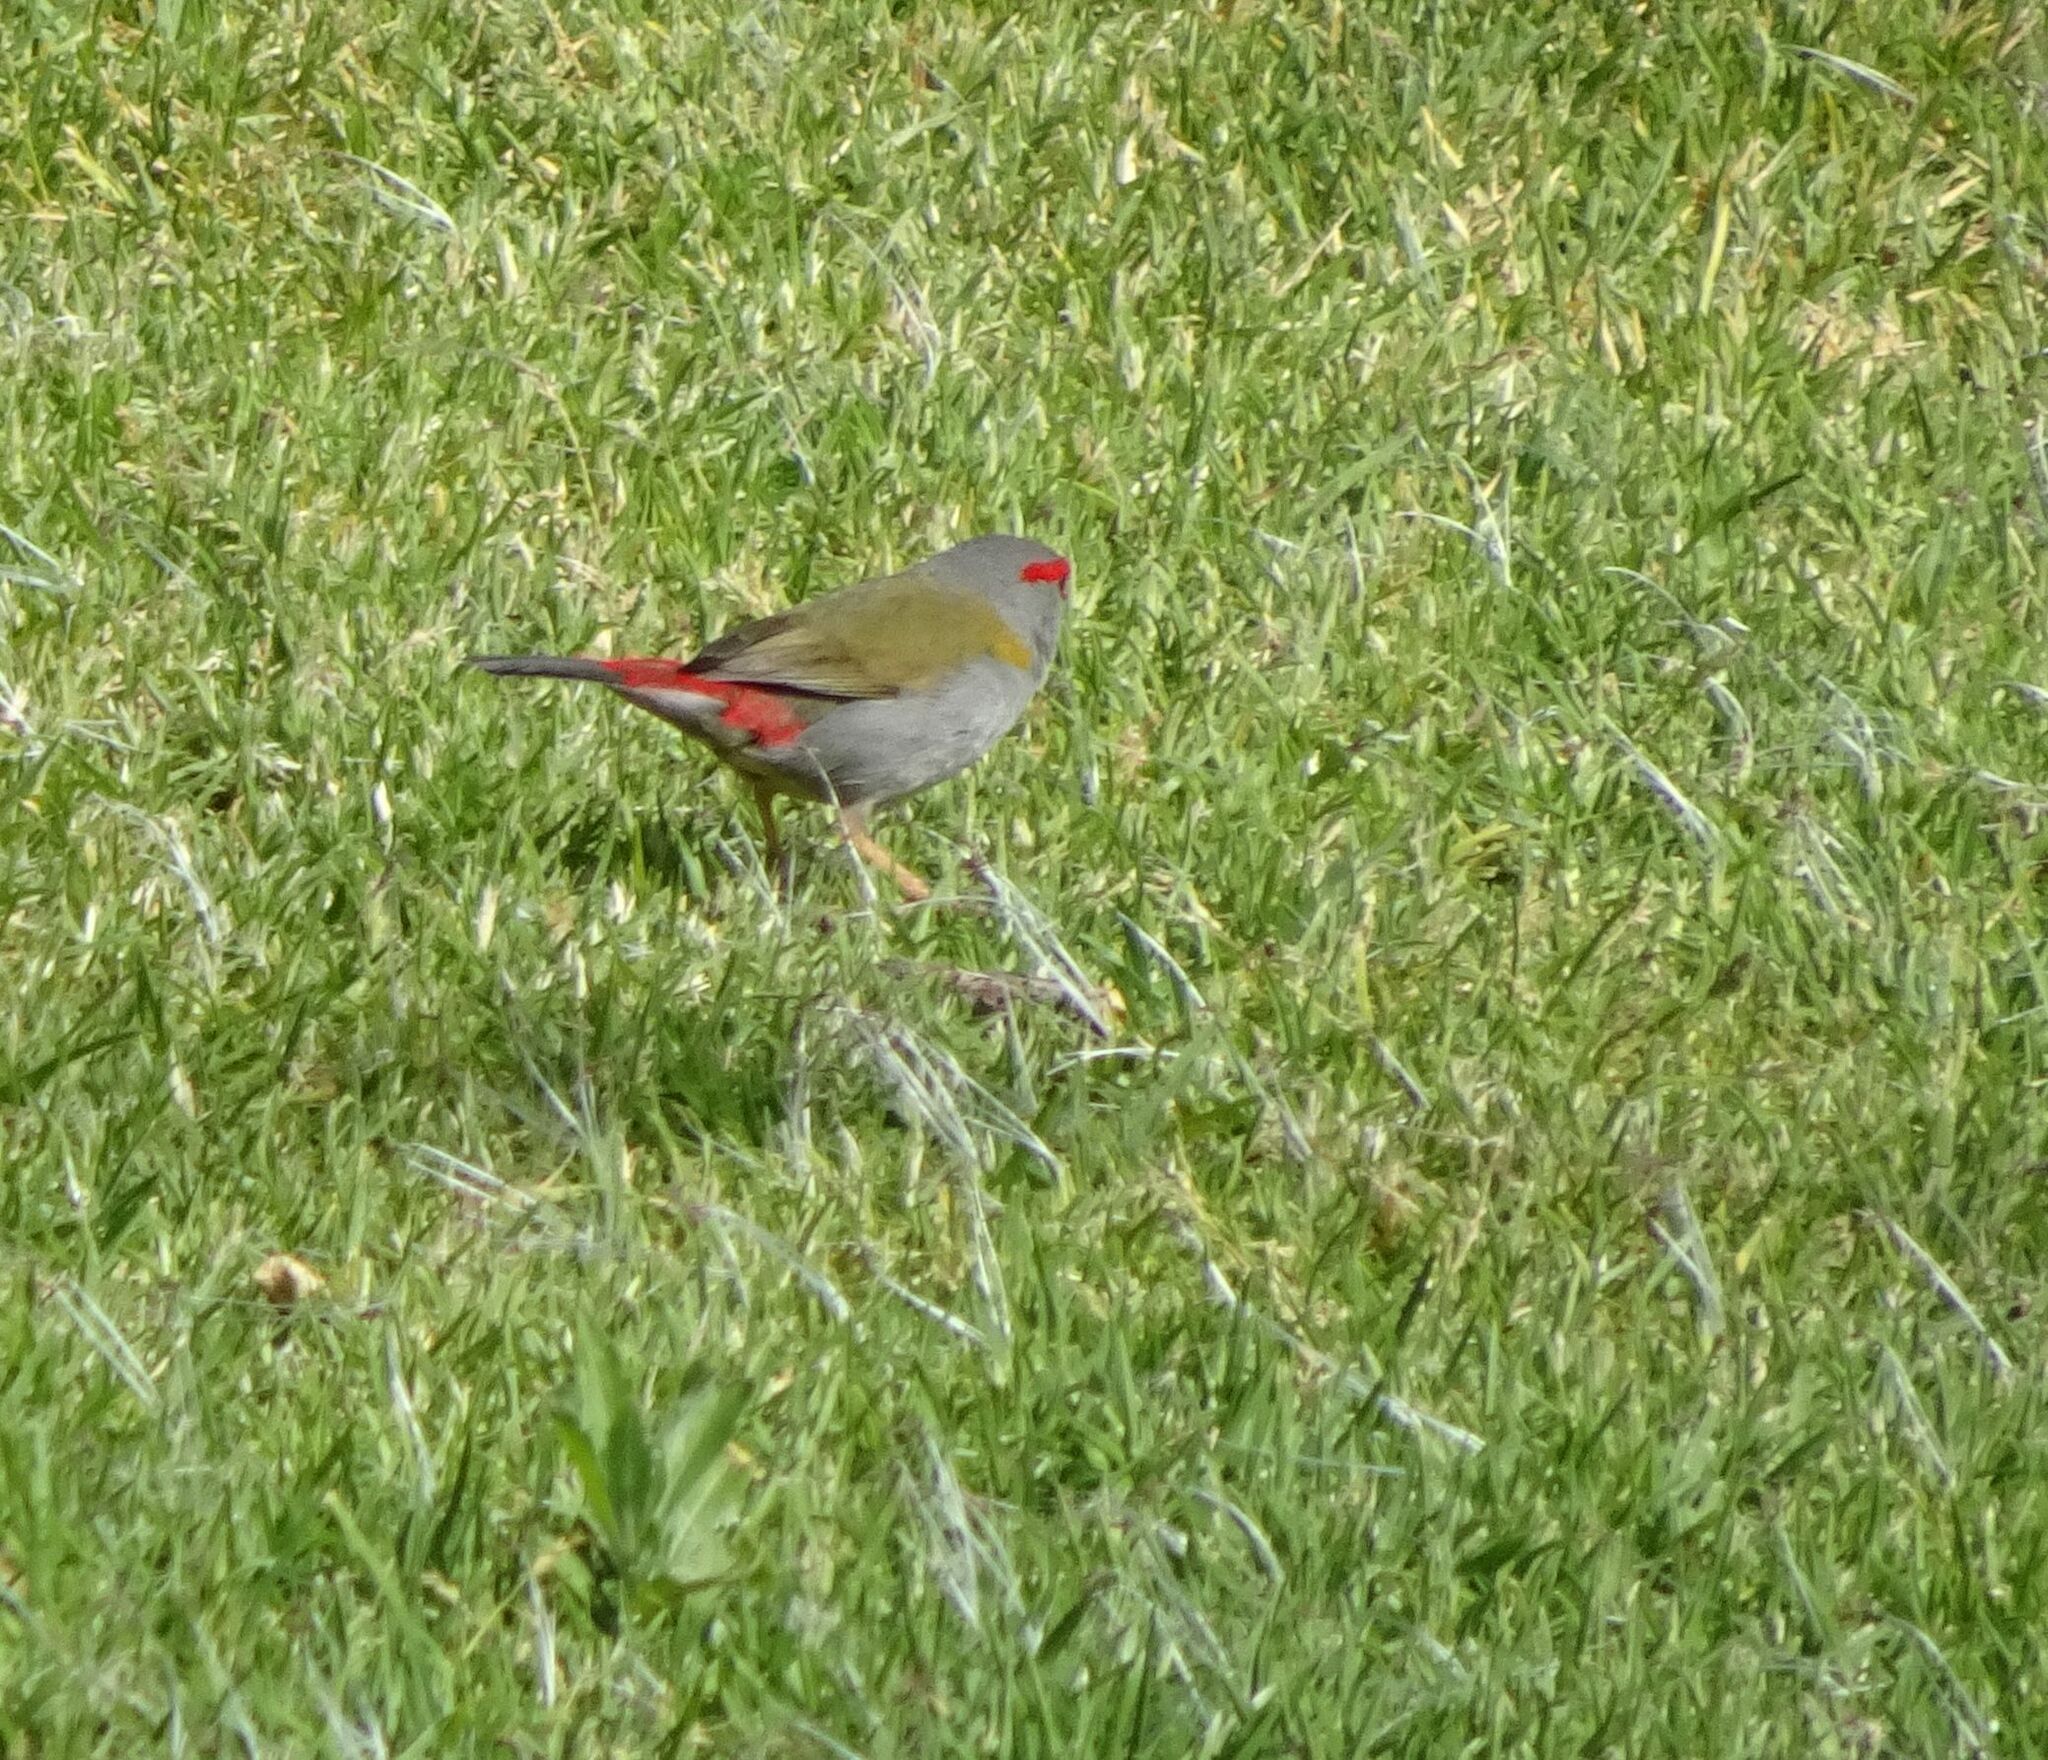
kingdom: Animalia
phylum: Chordata
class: Aves
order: Passeriformes
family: Estrildidae
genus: Neochmia
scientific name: Neochmia temporalis
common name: Red-browed finch
